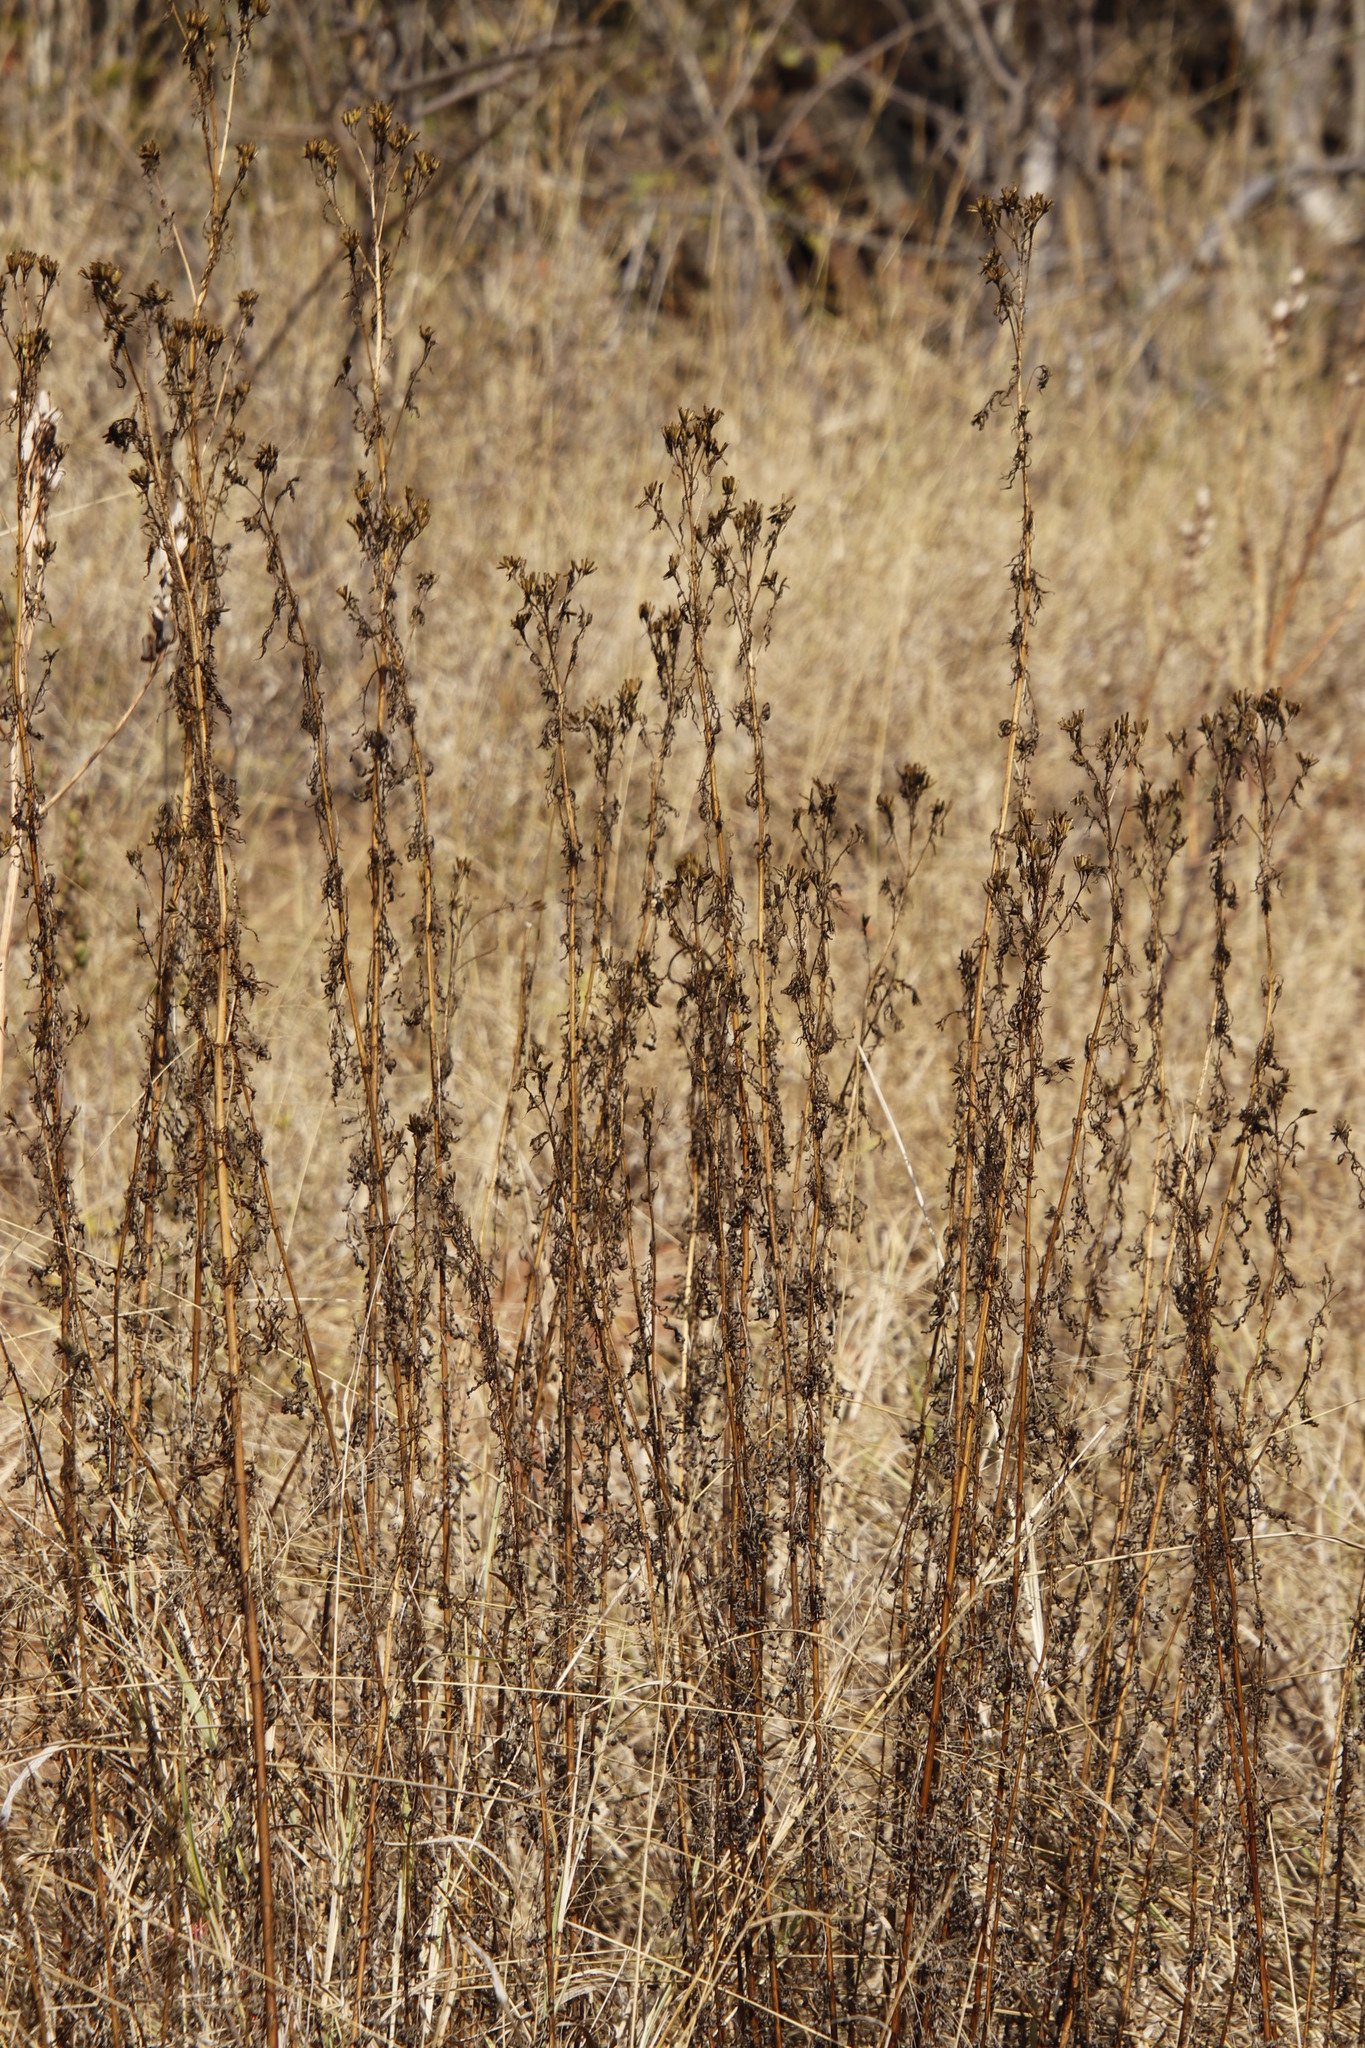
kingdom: Plantae
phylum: Tracheophyta
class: Magnoliopsida
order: Asterales
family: Asteraceae
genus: Tagetes
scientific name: Tagetes minuta
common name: Muster john henry
